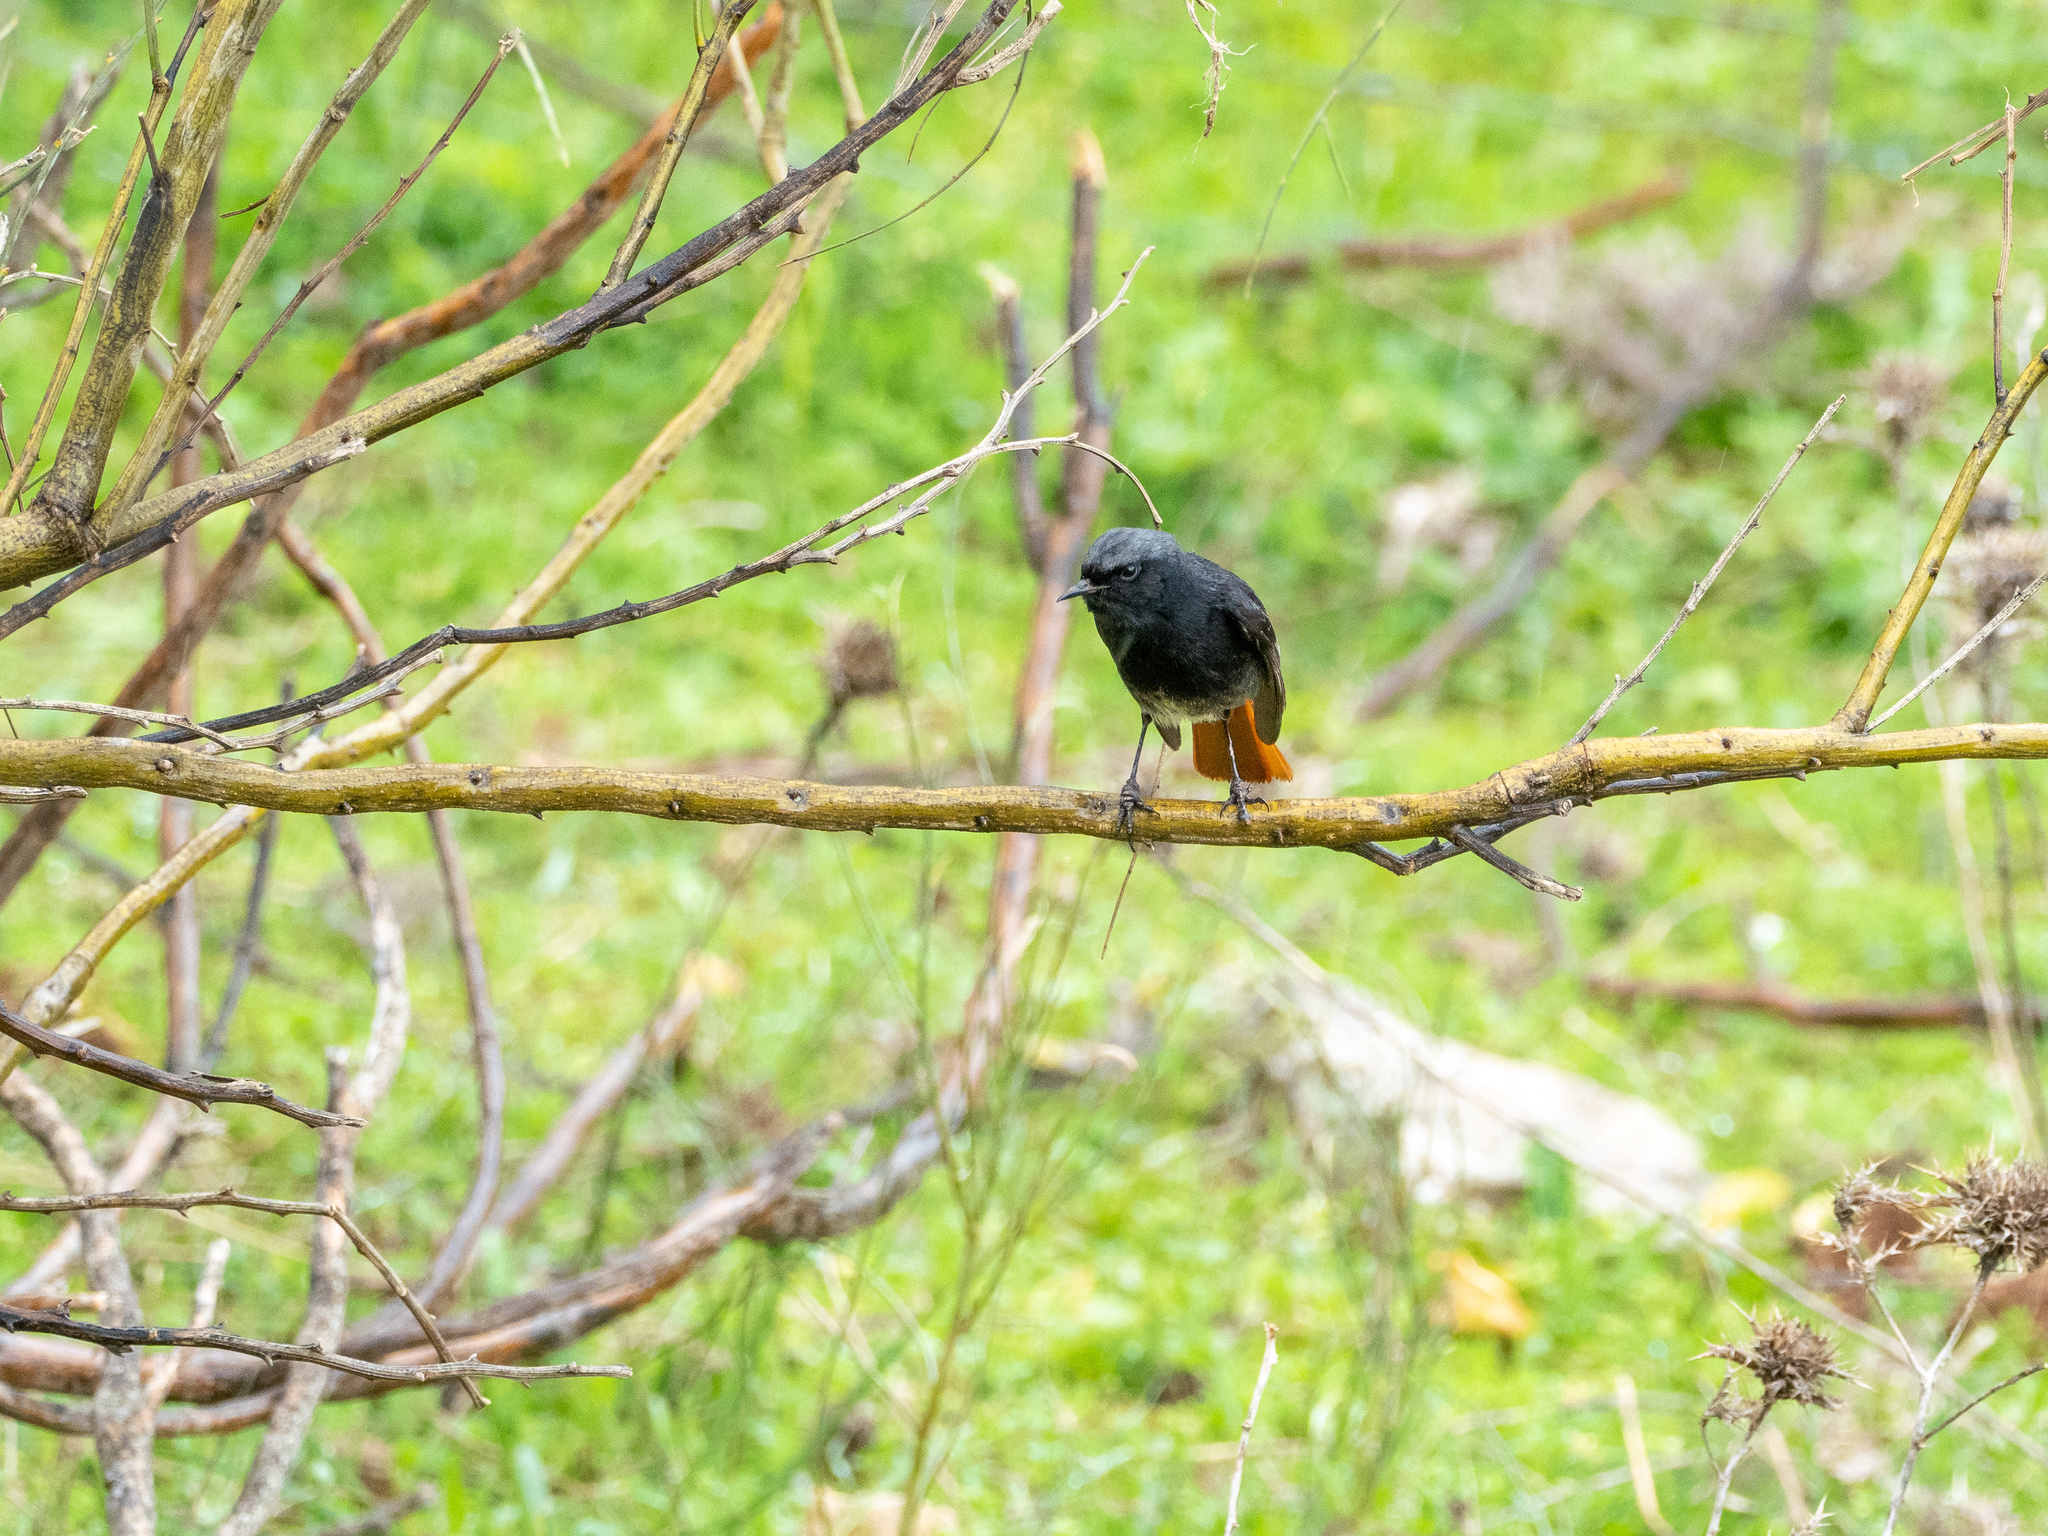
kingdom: Animalia
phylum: Chordata
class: Aves
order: Passeriformes
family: Muscicapidae
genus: Phoenicurus
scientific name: Phoenicurus ochruros
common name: Black redstart
